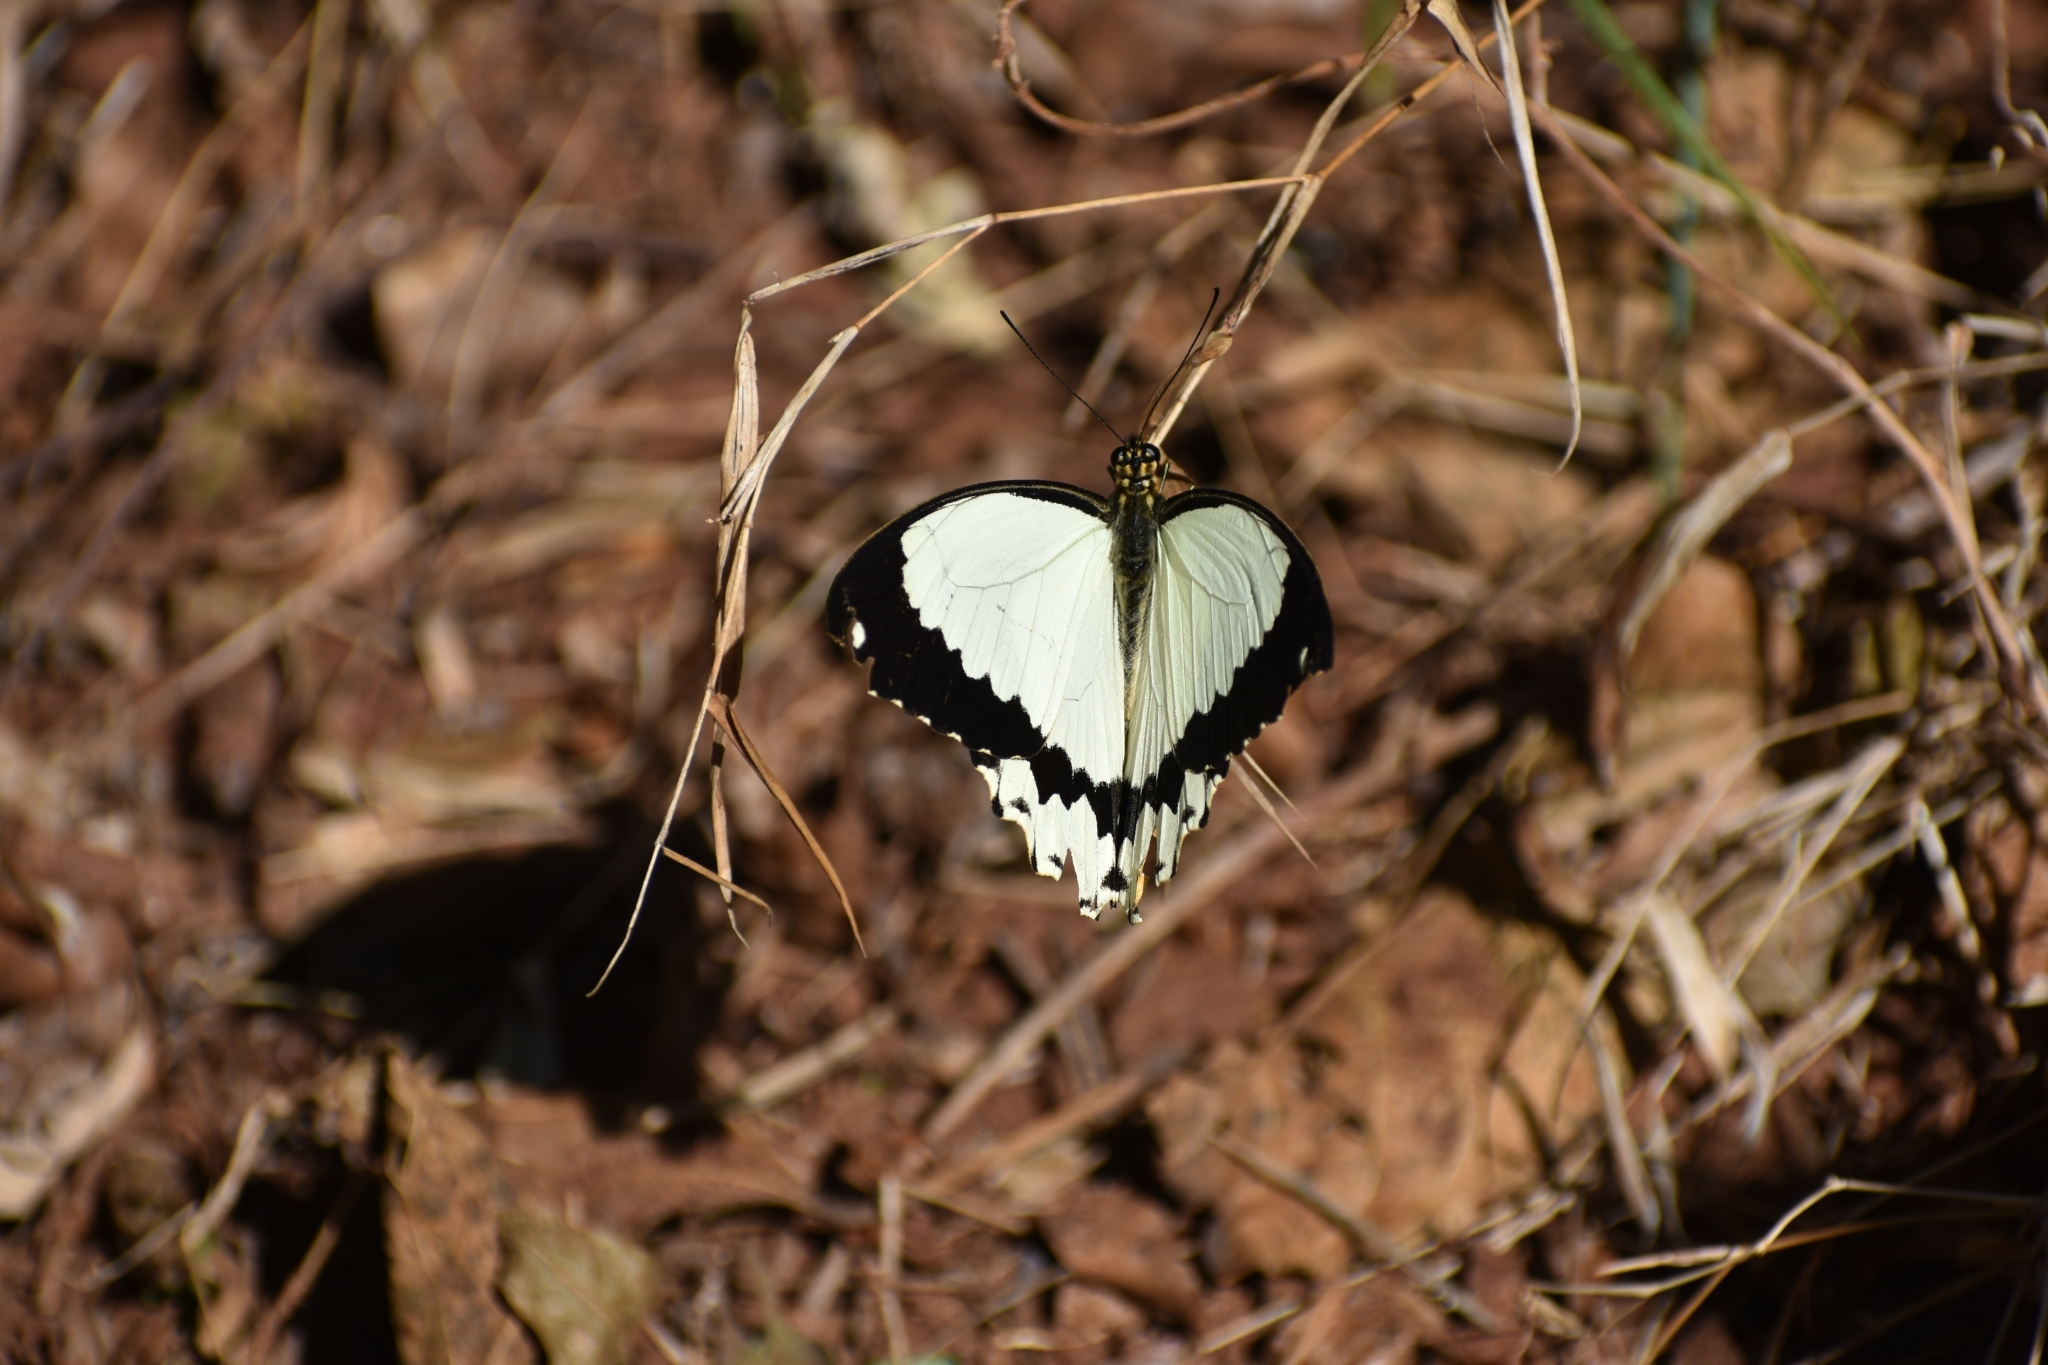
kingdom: Animalia
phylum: Arthropoda
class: Insecta
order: Lepidoptera
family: Papilionidae
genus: Papilio
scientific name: Papilio dardanus
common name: Flying handkerchief
